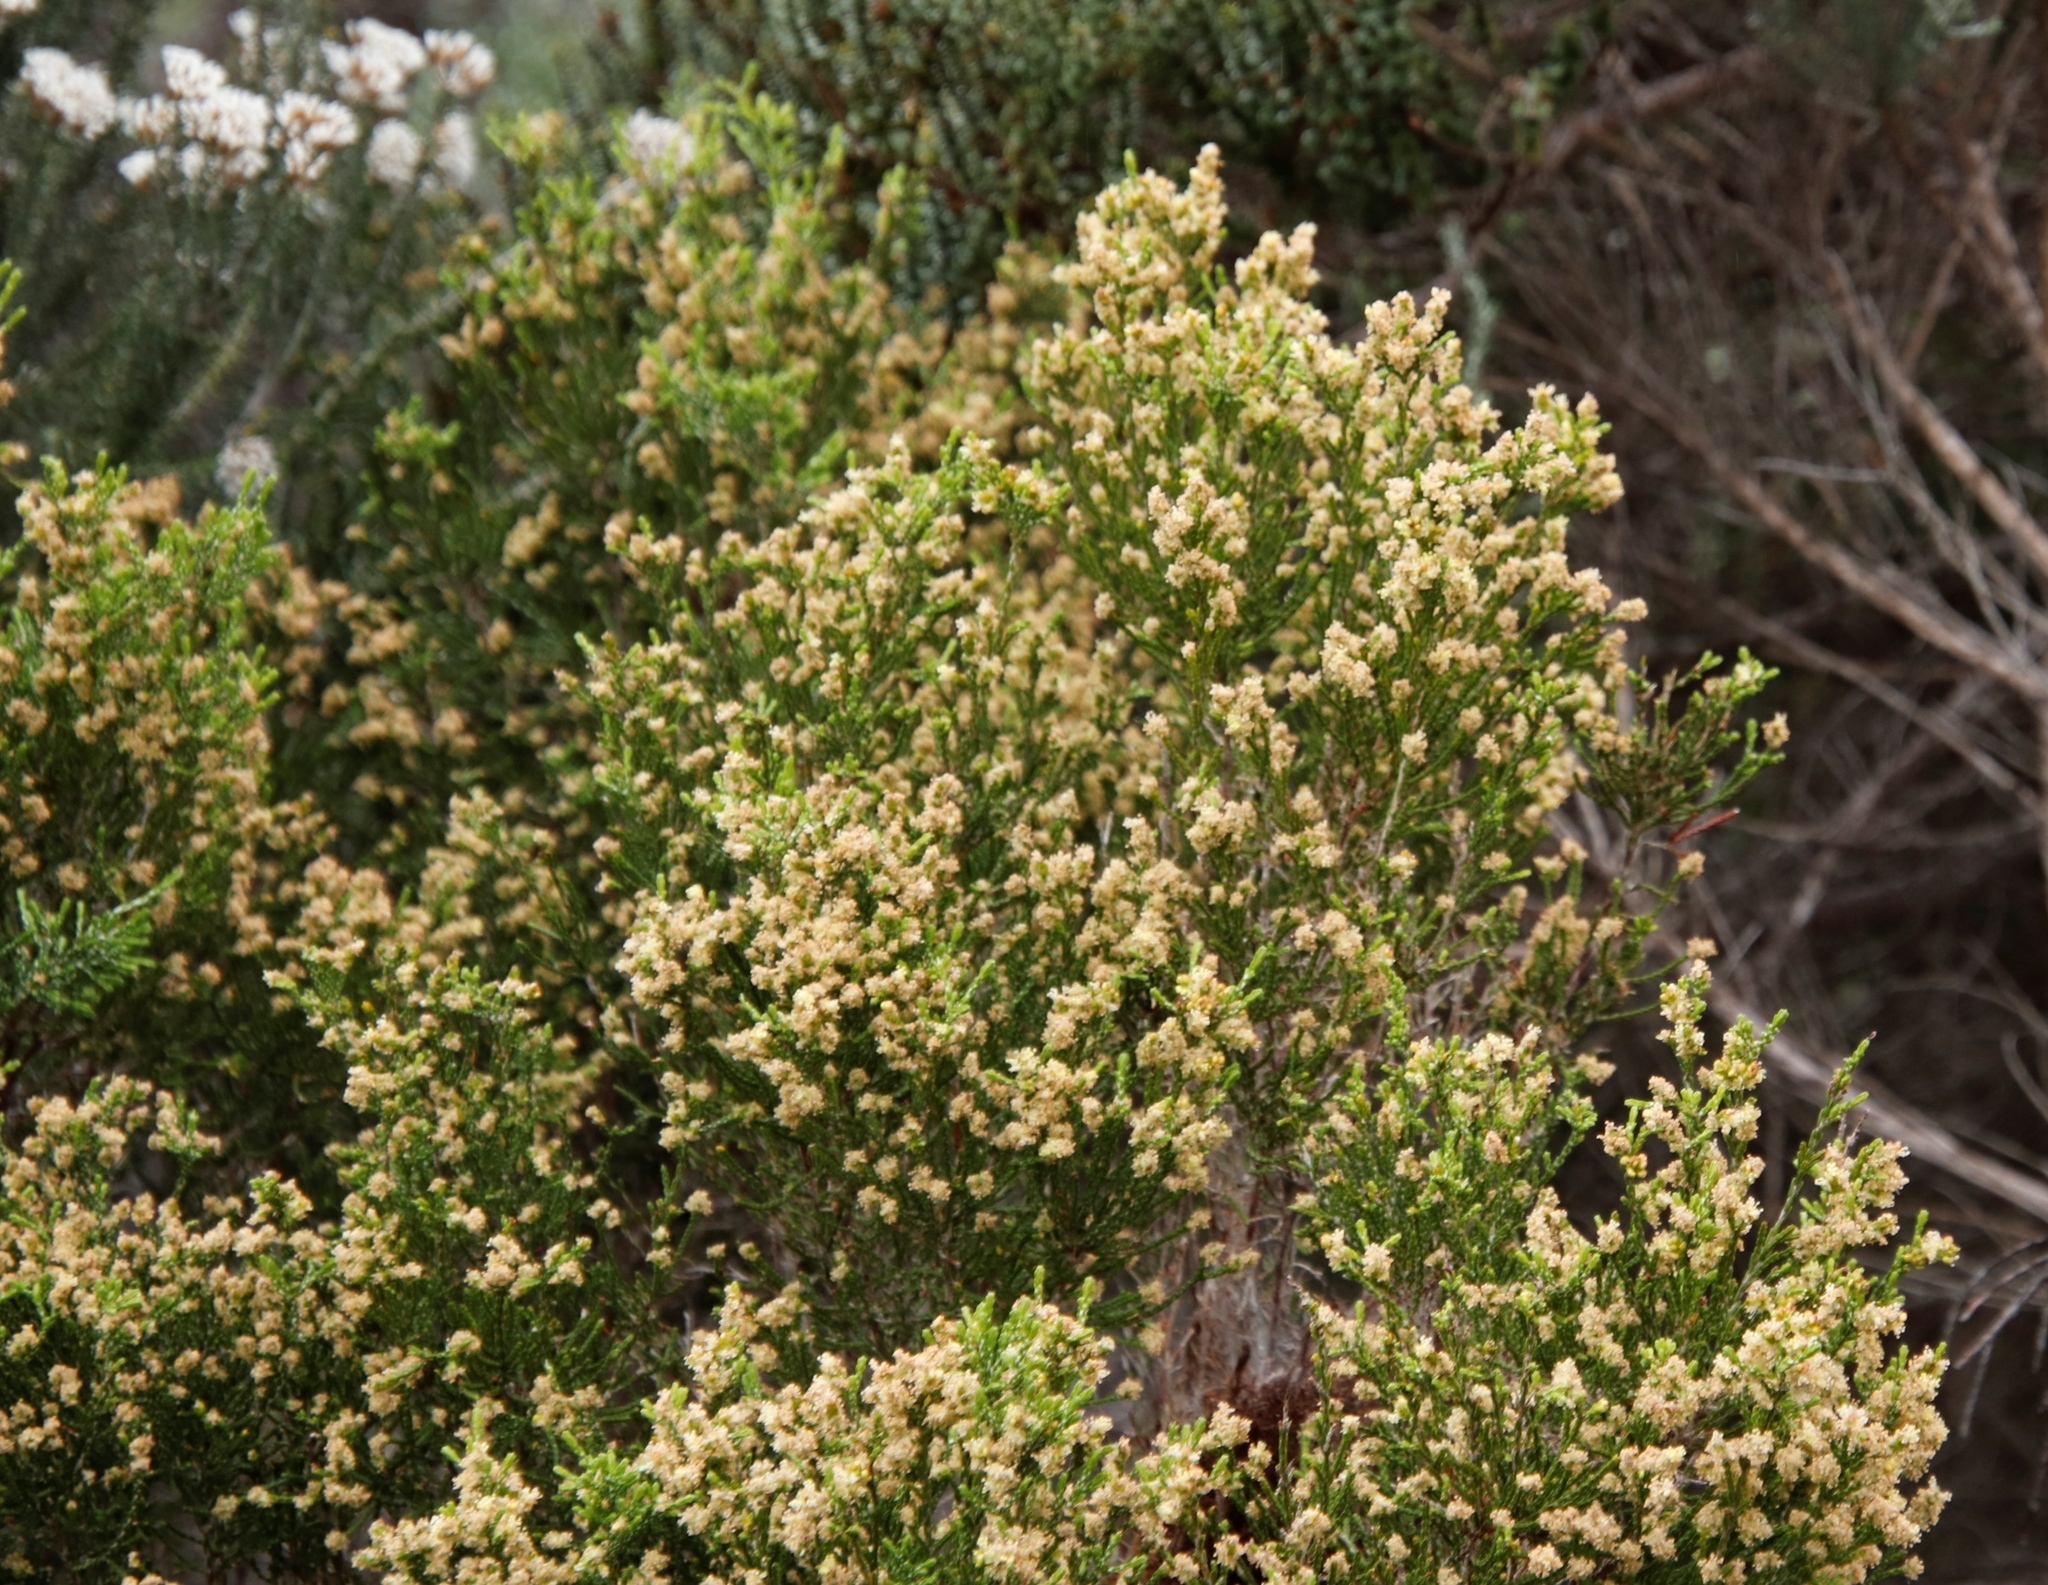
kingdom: Plantae
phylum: Tracheophyta
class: Magnoliopsida
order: Malvales
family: Thymelaeaceae
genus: Passerina
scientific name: Passerina paleacea
